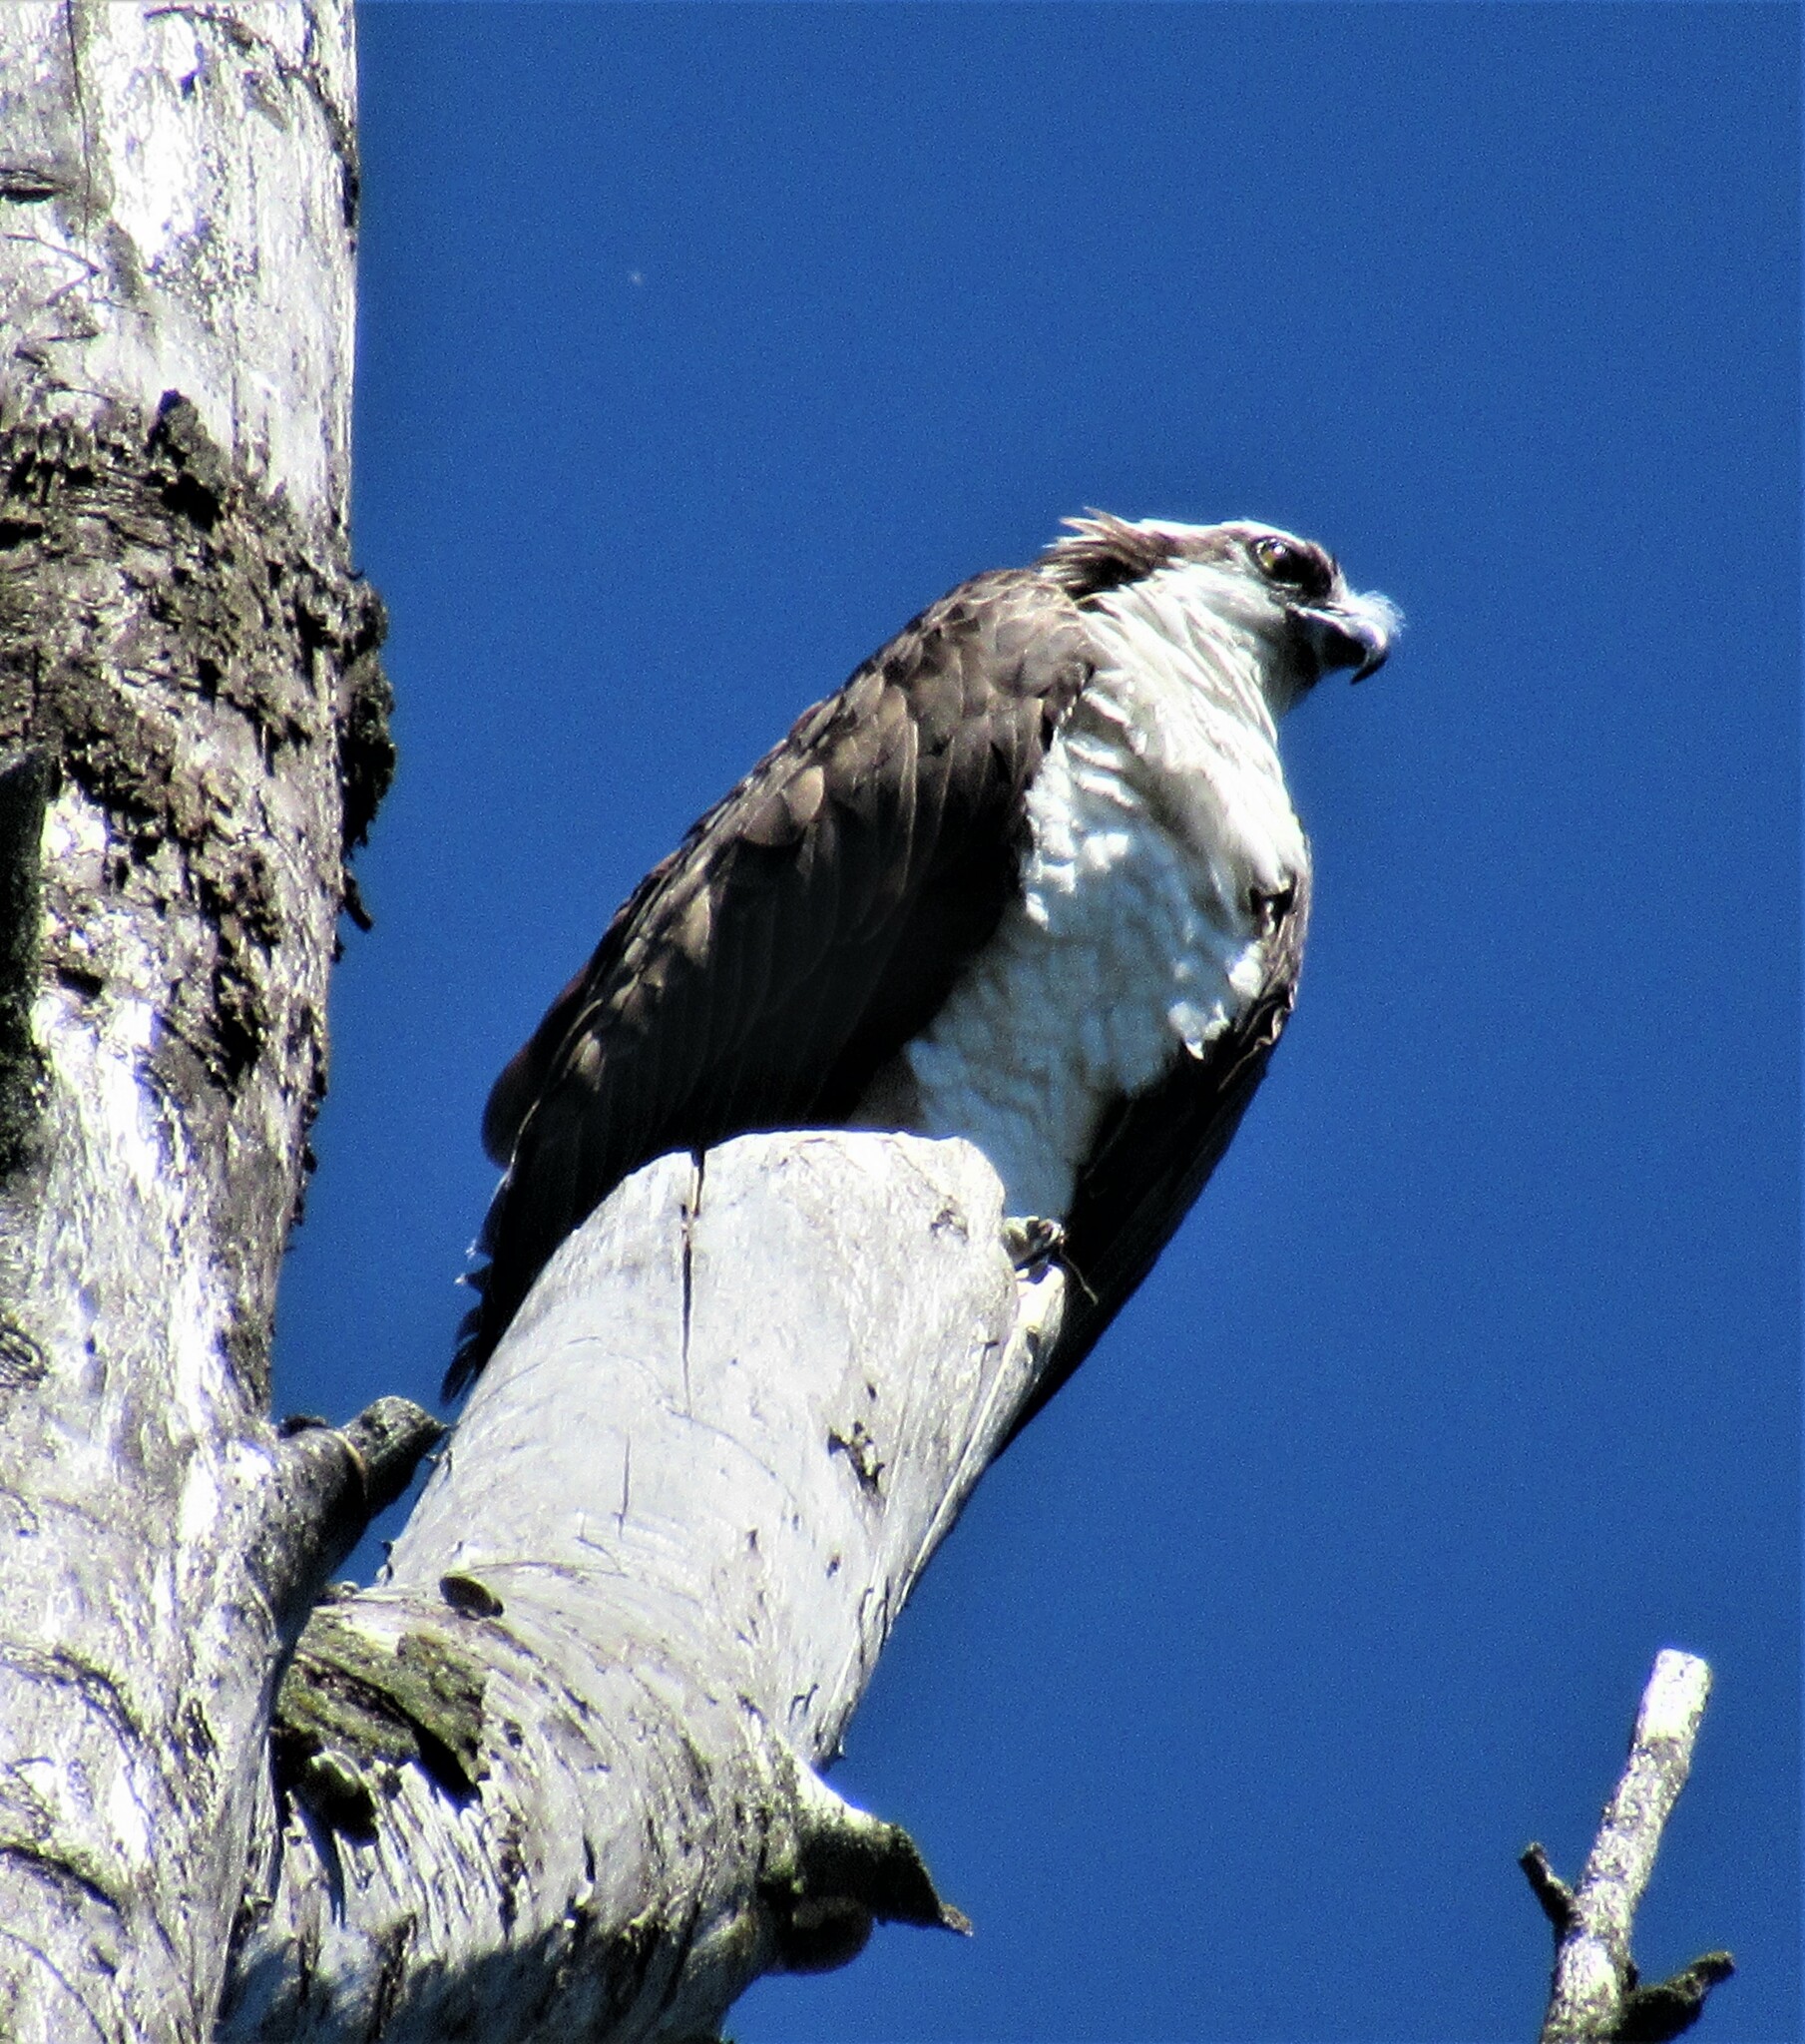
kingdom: Animalia
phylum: Chordata
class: Aves
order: Accipitriformes
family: Pandionidae
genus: Pandion
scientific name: Pandion haliaetus
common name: Osprey
